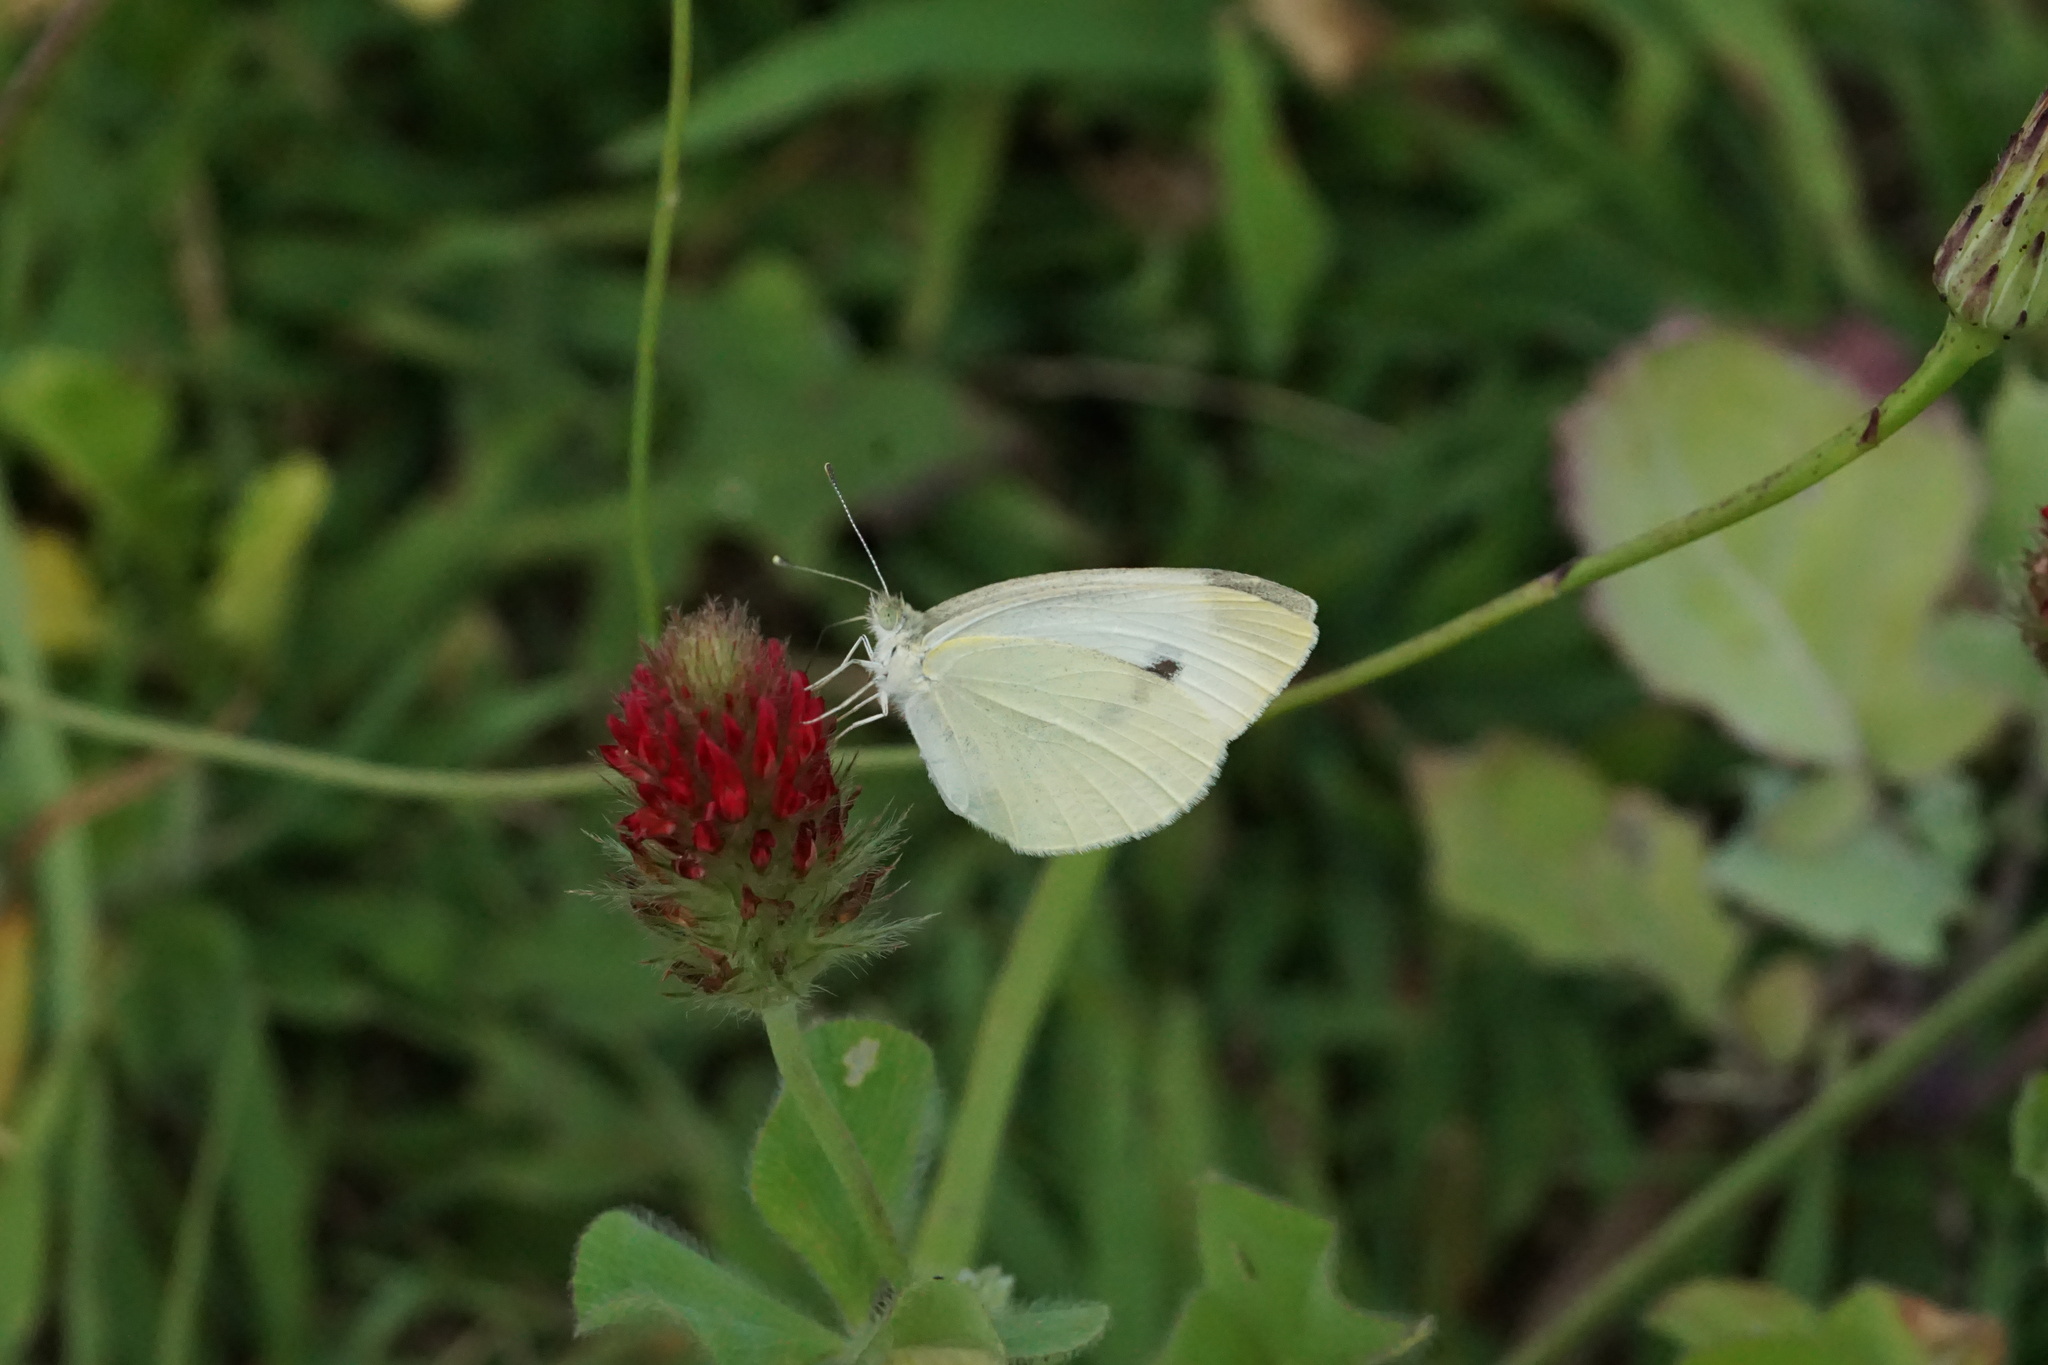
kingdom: Animalia
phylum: Arthropoda
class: Insecta
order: Lepidoptera
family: Pieridae
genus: Pieris
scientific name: Pieris rapae
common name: Small white
